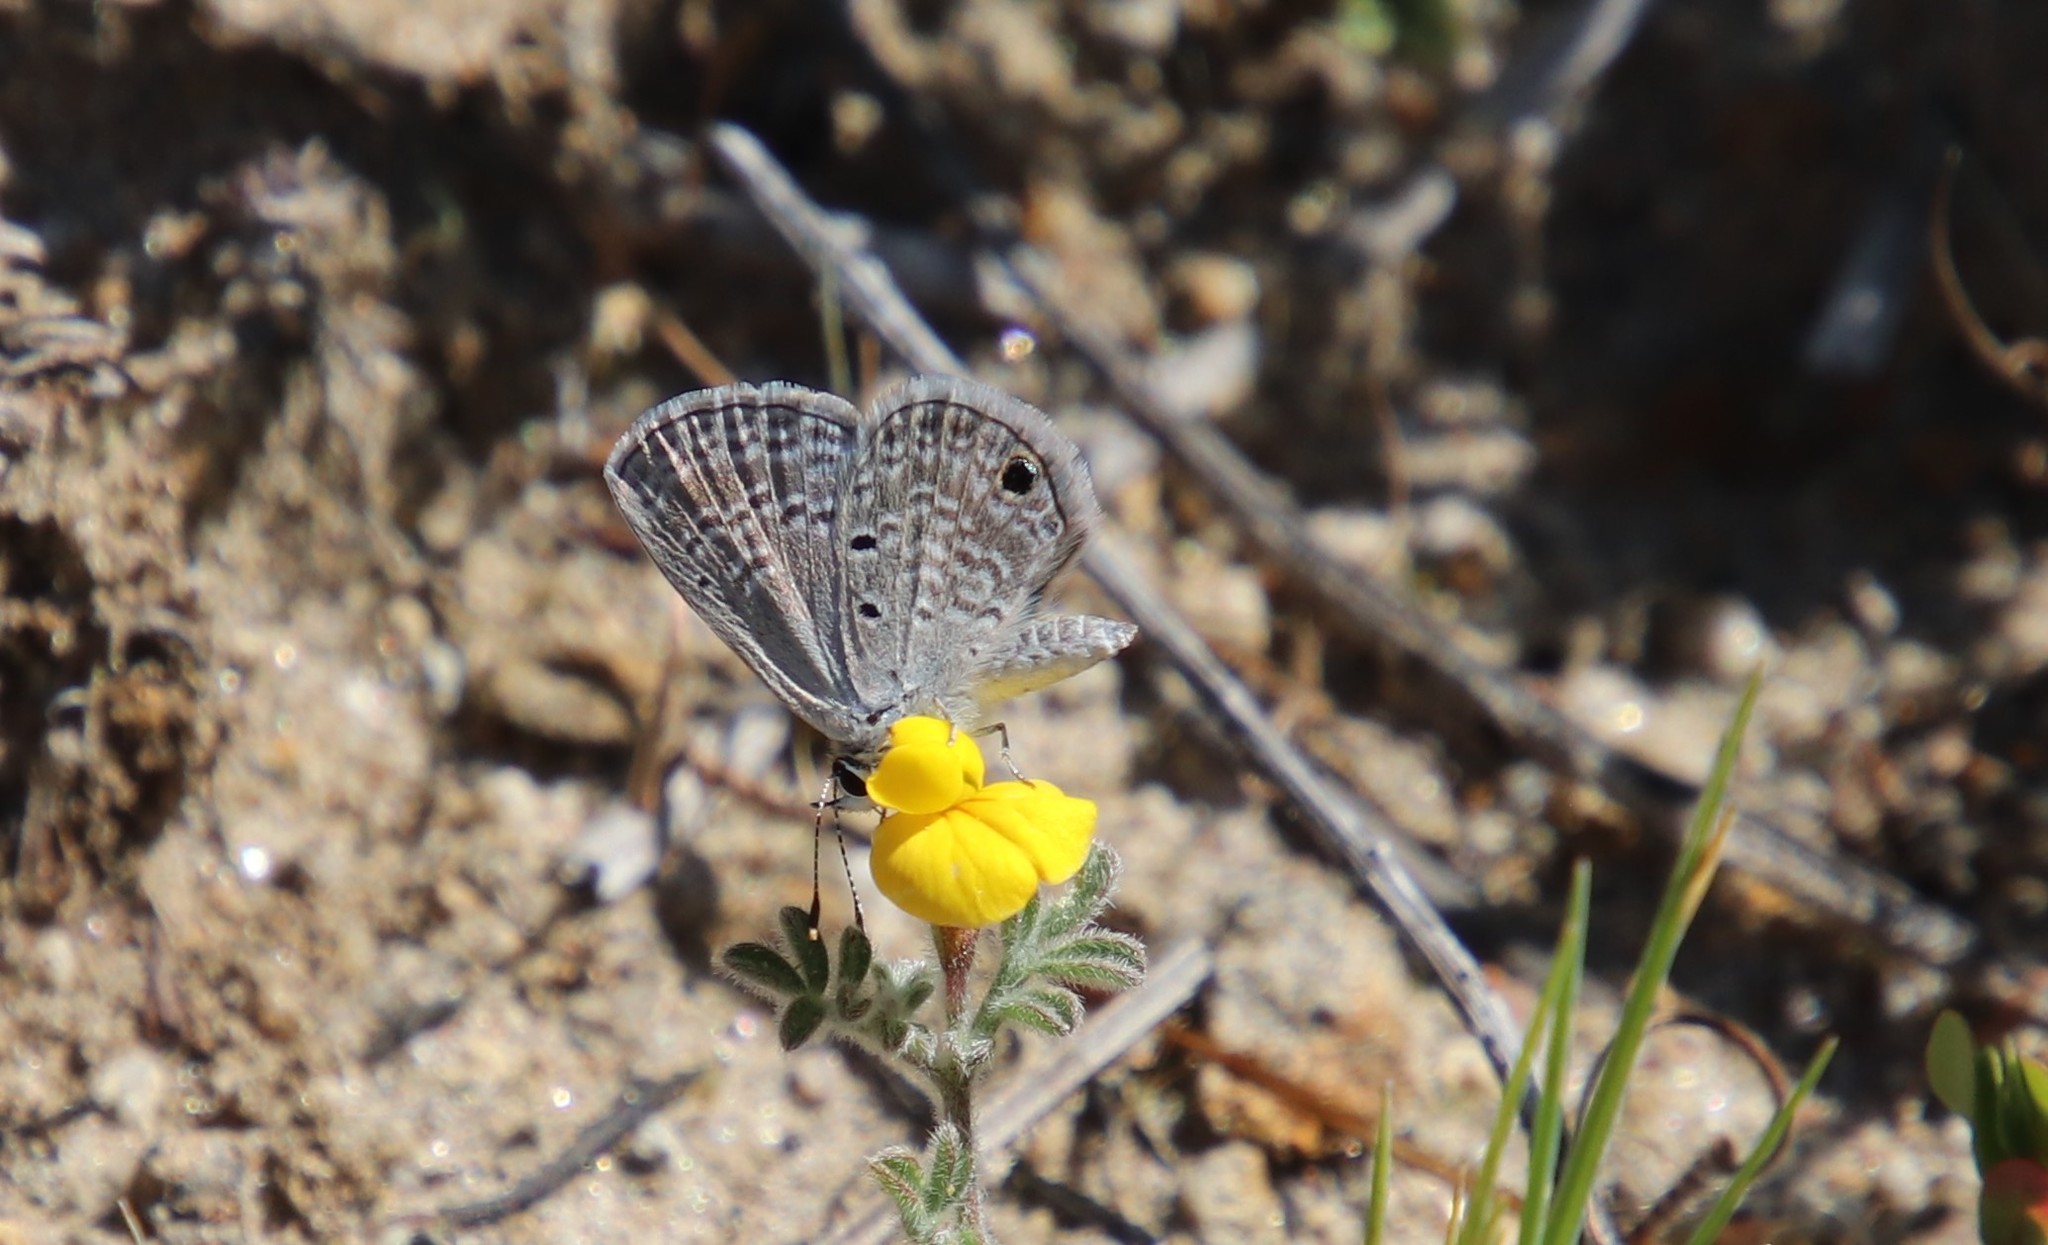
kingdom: Animalia
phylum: Arthropoda
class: Insecta
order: Lepidoptera
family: Lycaenidae
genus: Hemiargus
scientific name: Hemiargus ceraunus
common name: Ceraunus blue
